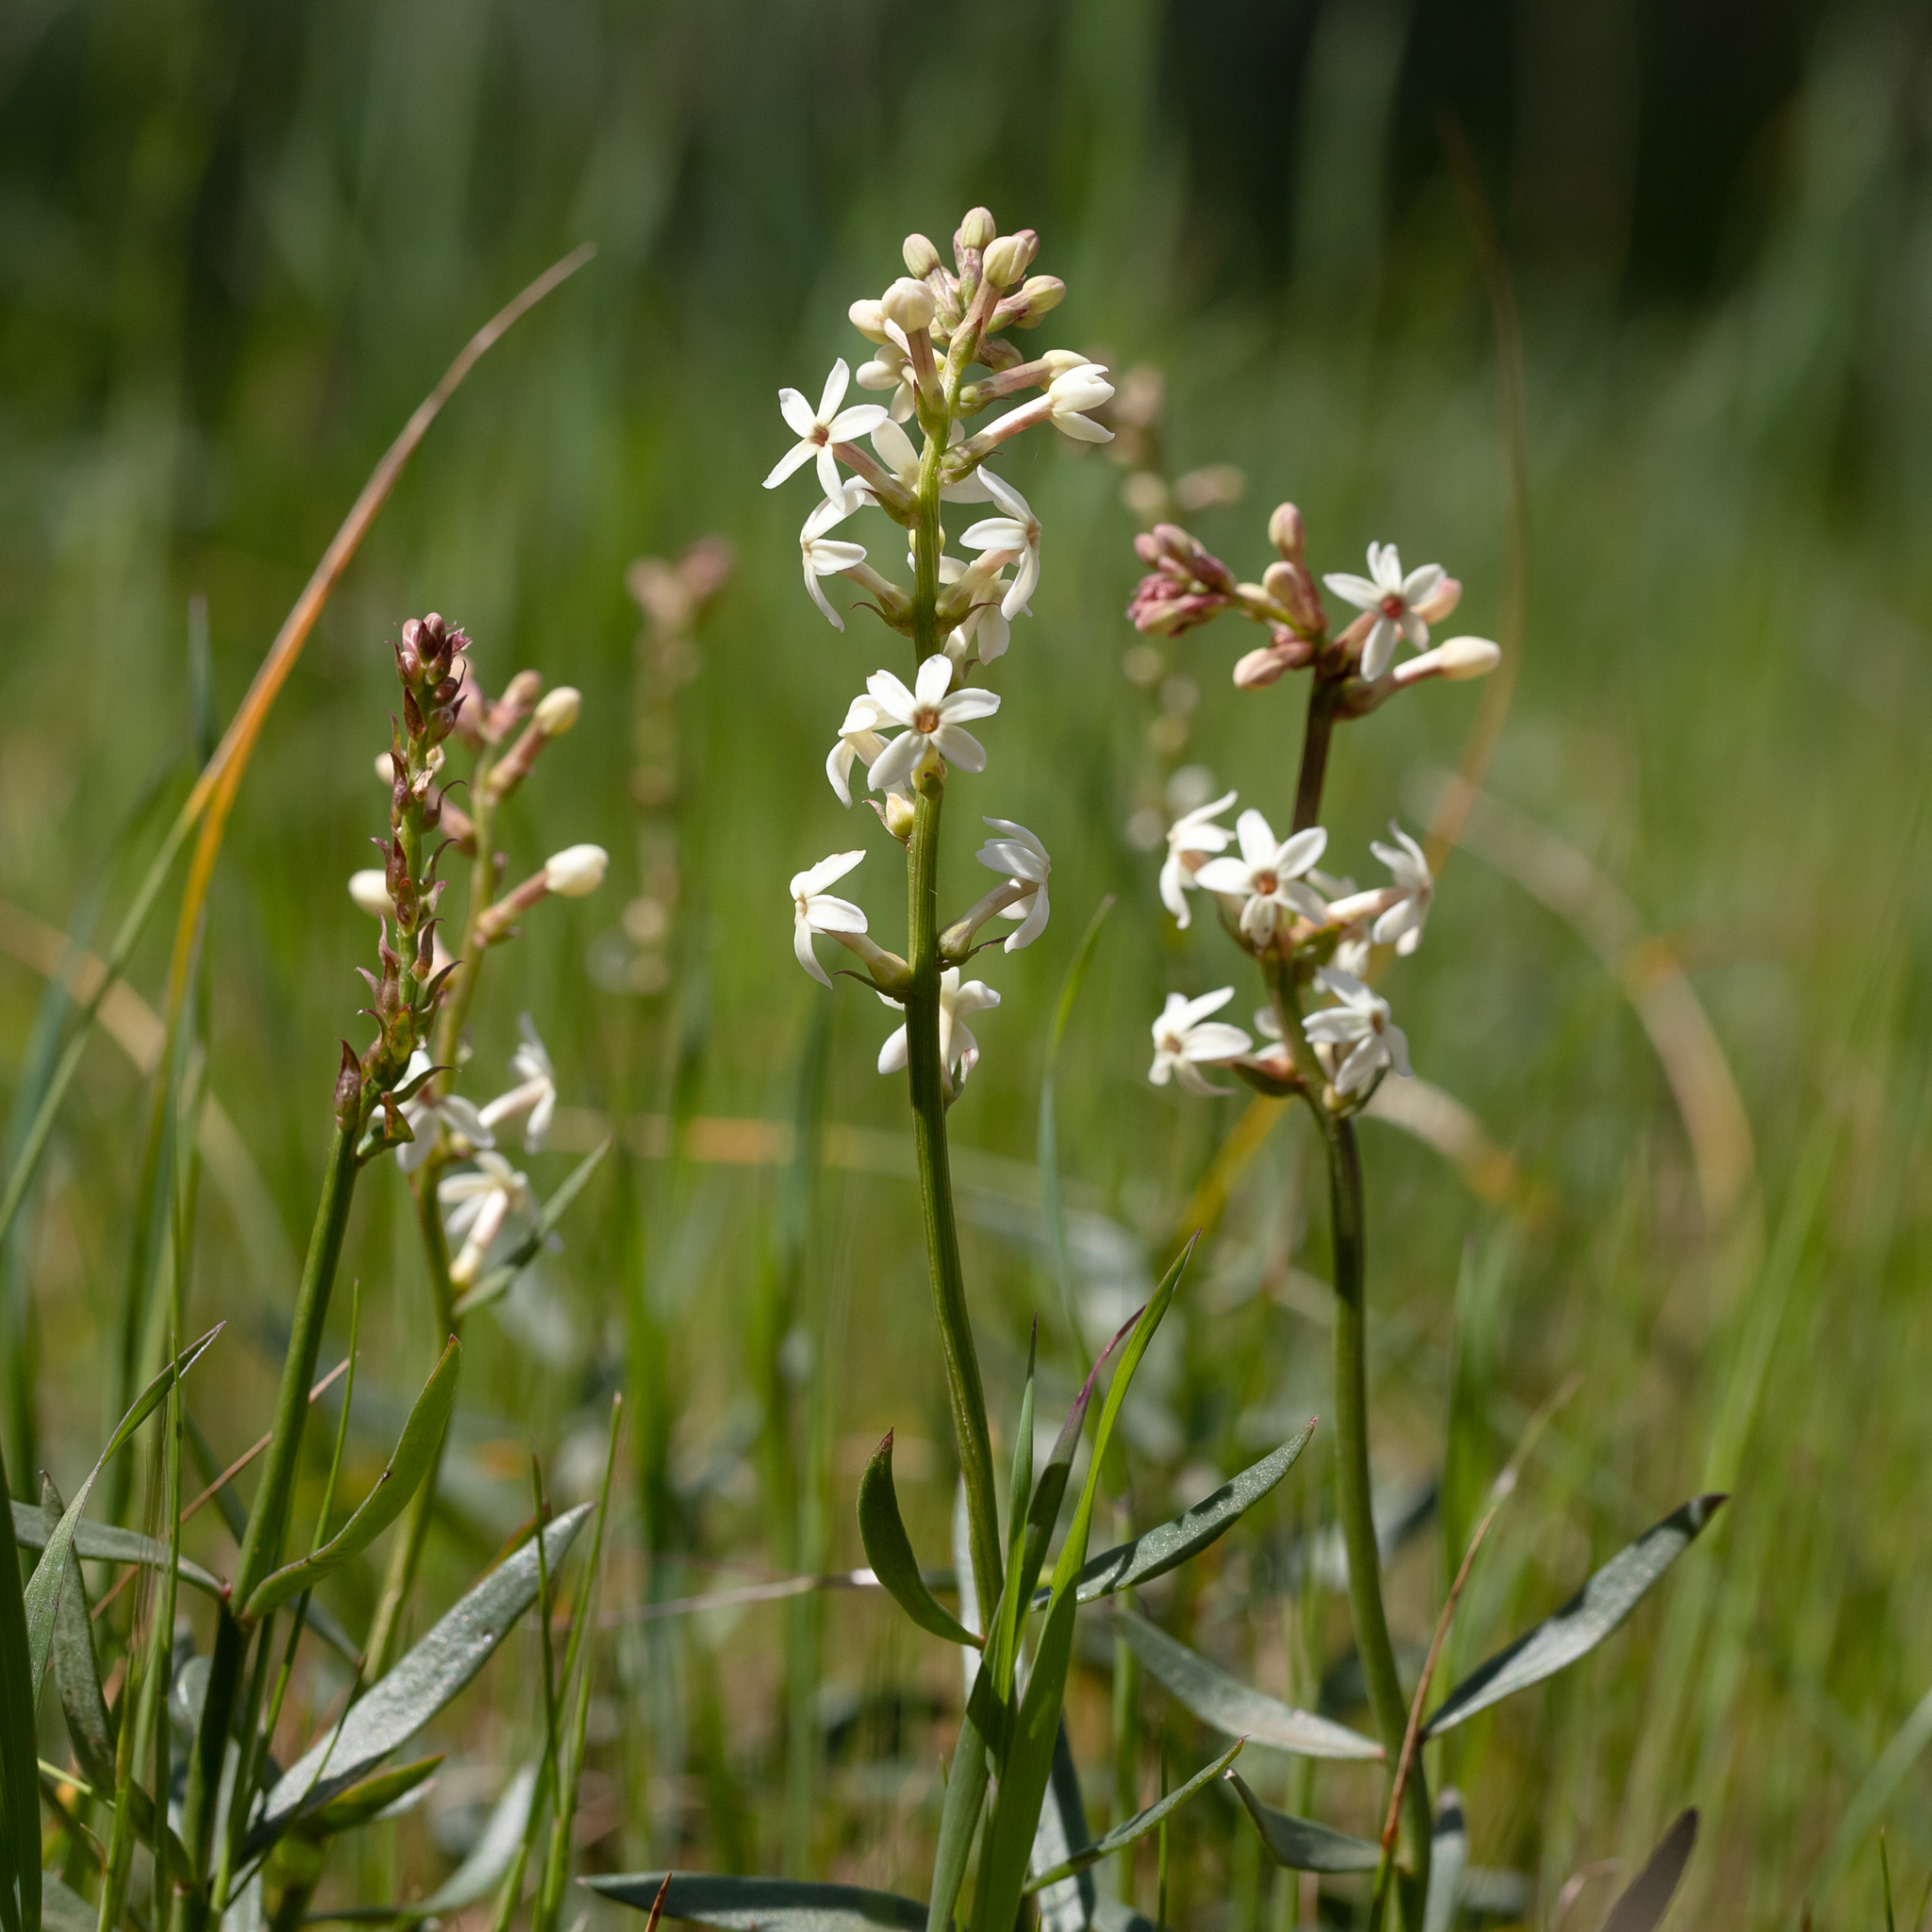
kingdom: Plantae
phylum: Tracheophyta
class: Magnoliopsida
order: Celastrales
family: Celastraceae
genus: Stackhousia
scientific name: Stackhousia monogyna
